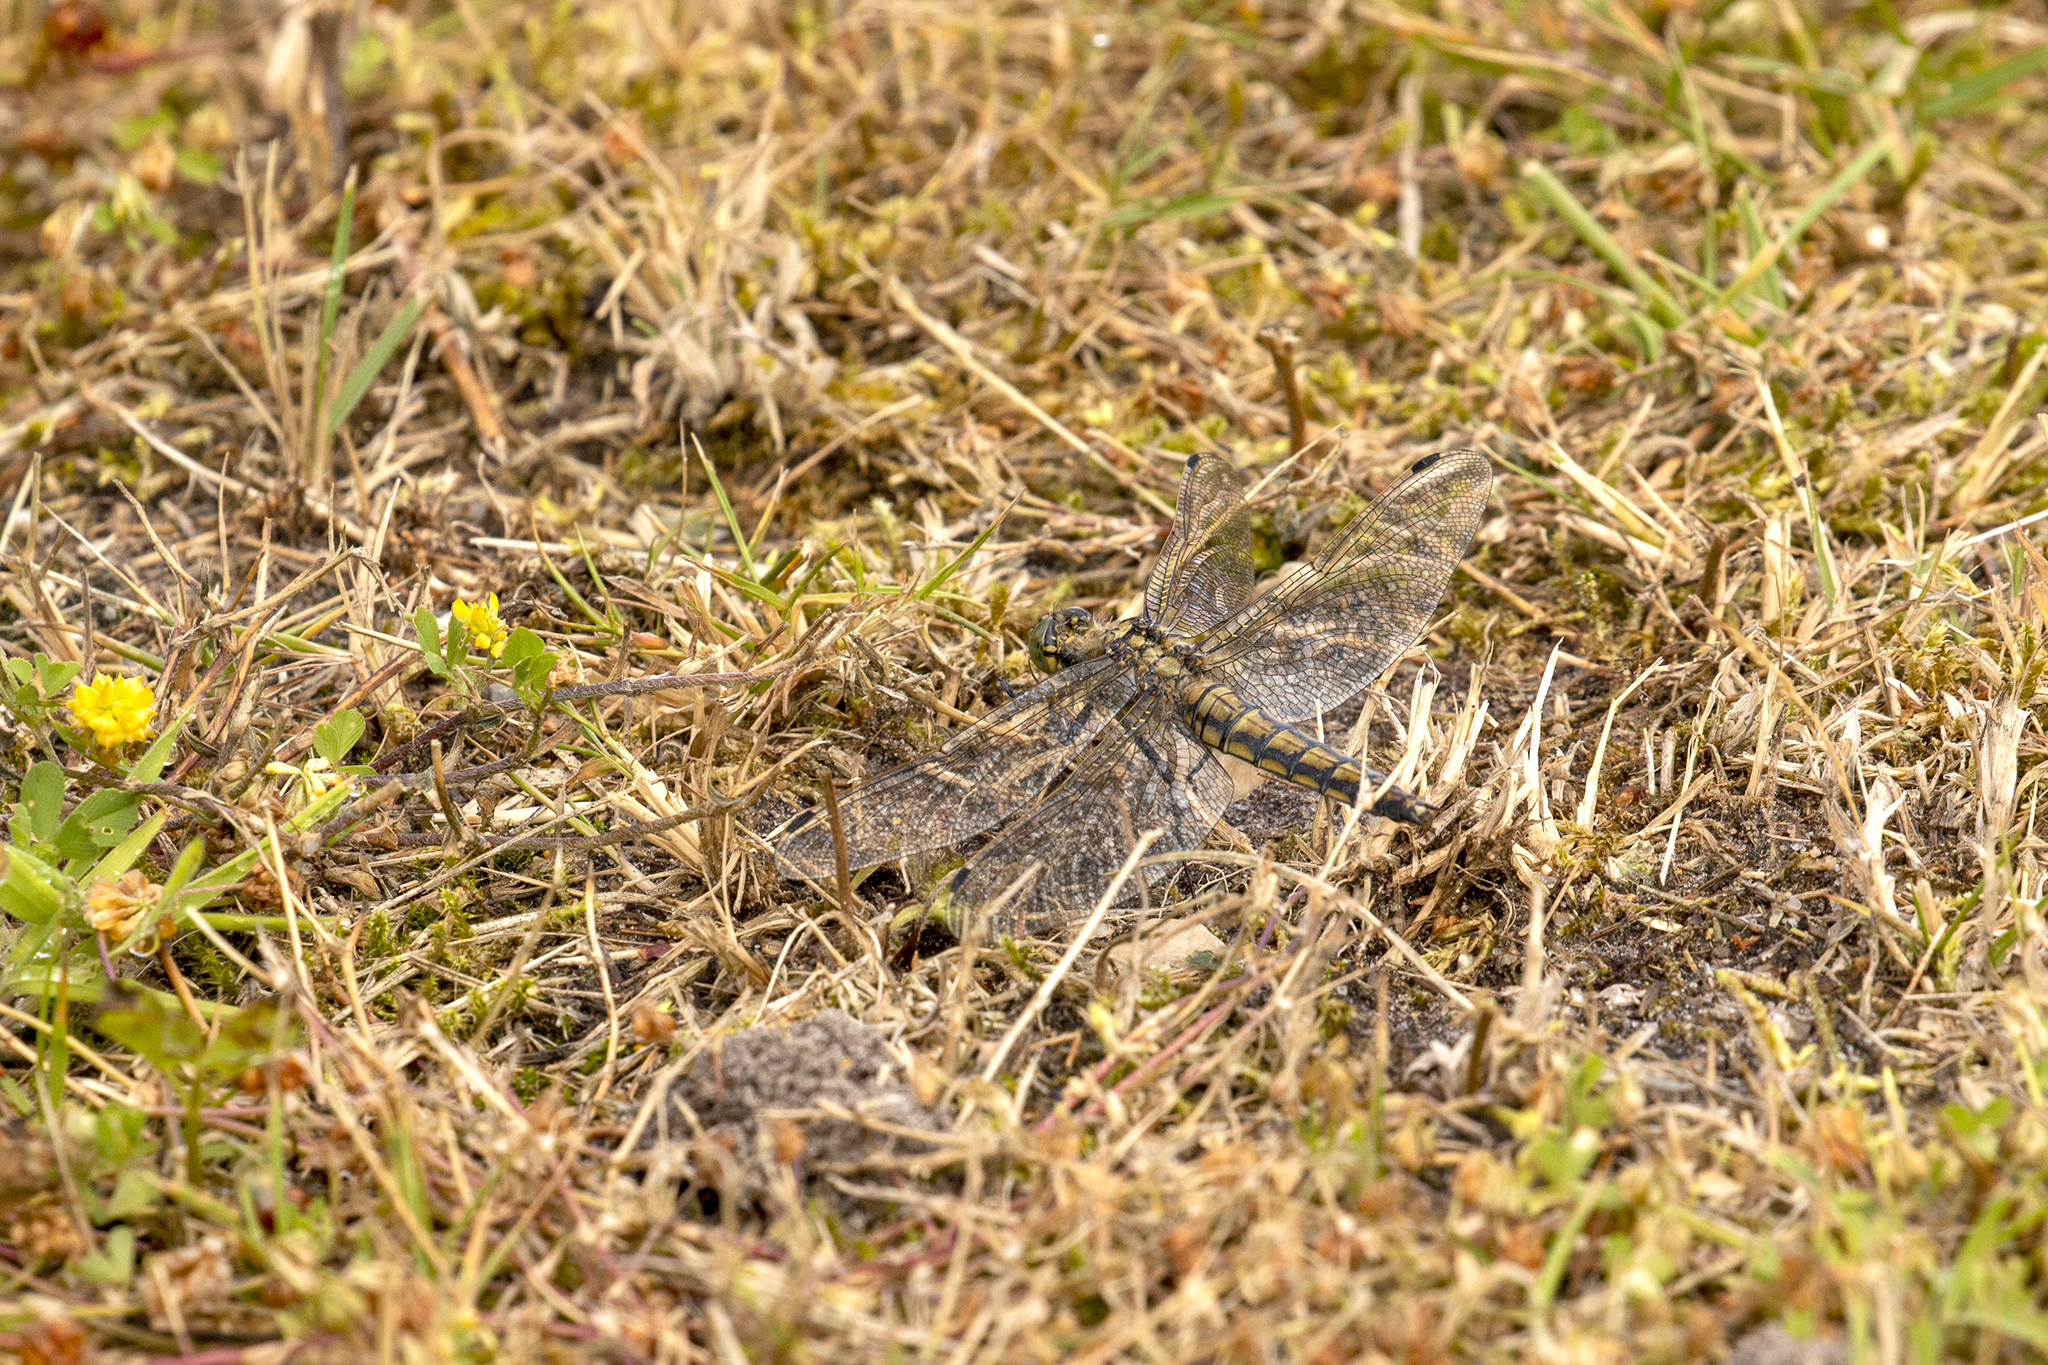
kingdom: Animalia
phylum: Arthropoda
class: Insecta
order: Odonata
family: Libellulidae
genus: Orthetrum
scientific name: Orthetrum cancellatum
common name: Black-tailed skimmer
